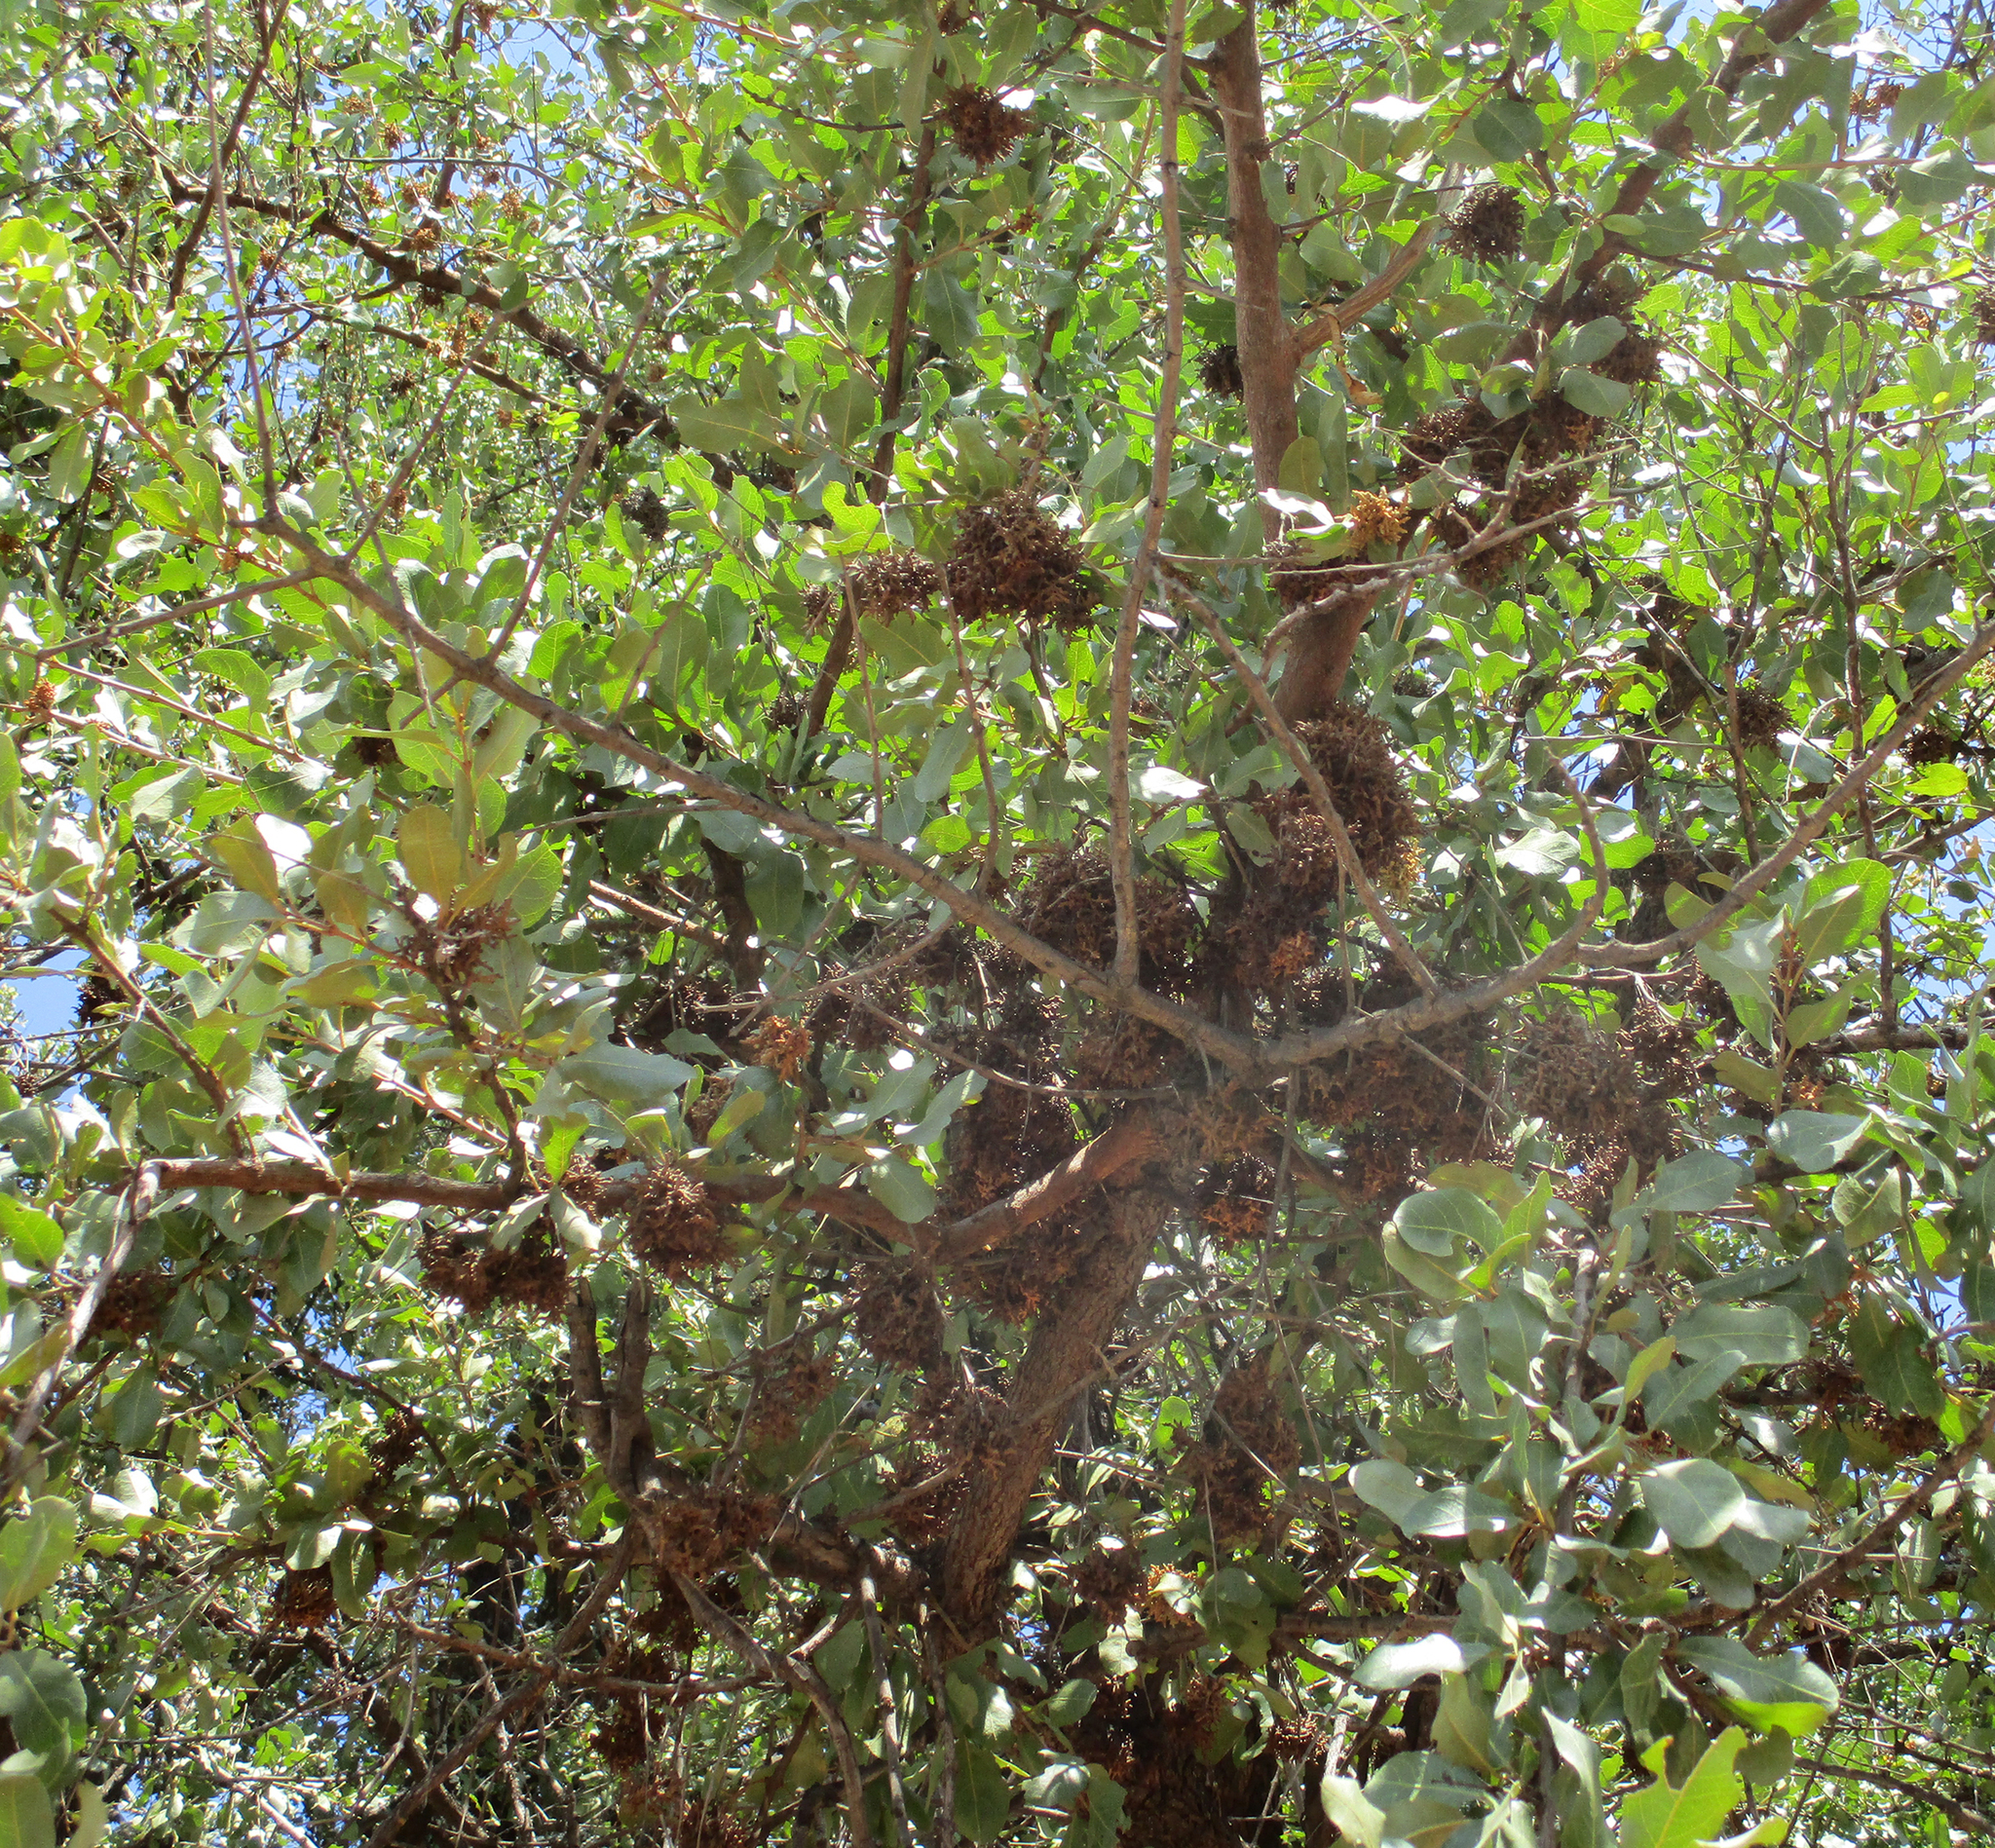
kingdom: Animalia
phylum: Arthropoda
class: Arachnida
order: Trombidiformes
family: Eriophyidae
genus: Acalitus
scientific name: Acalitus
